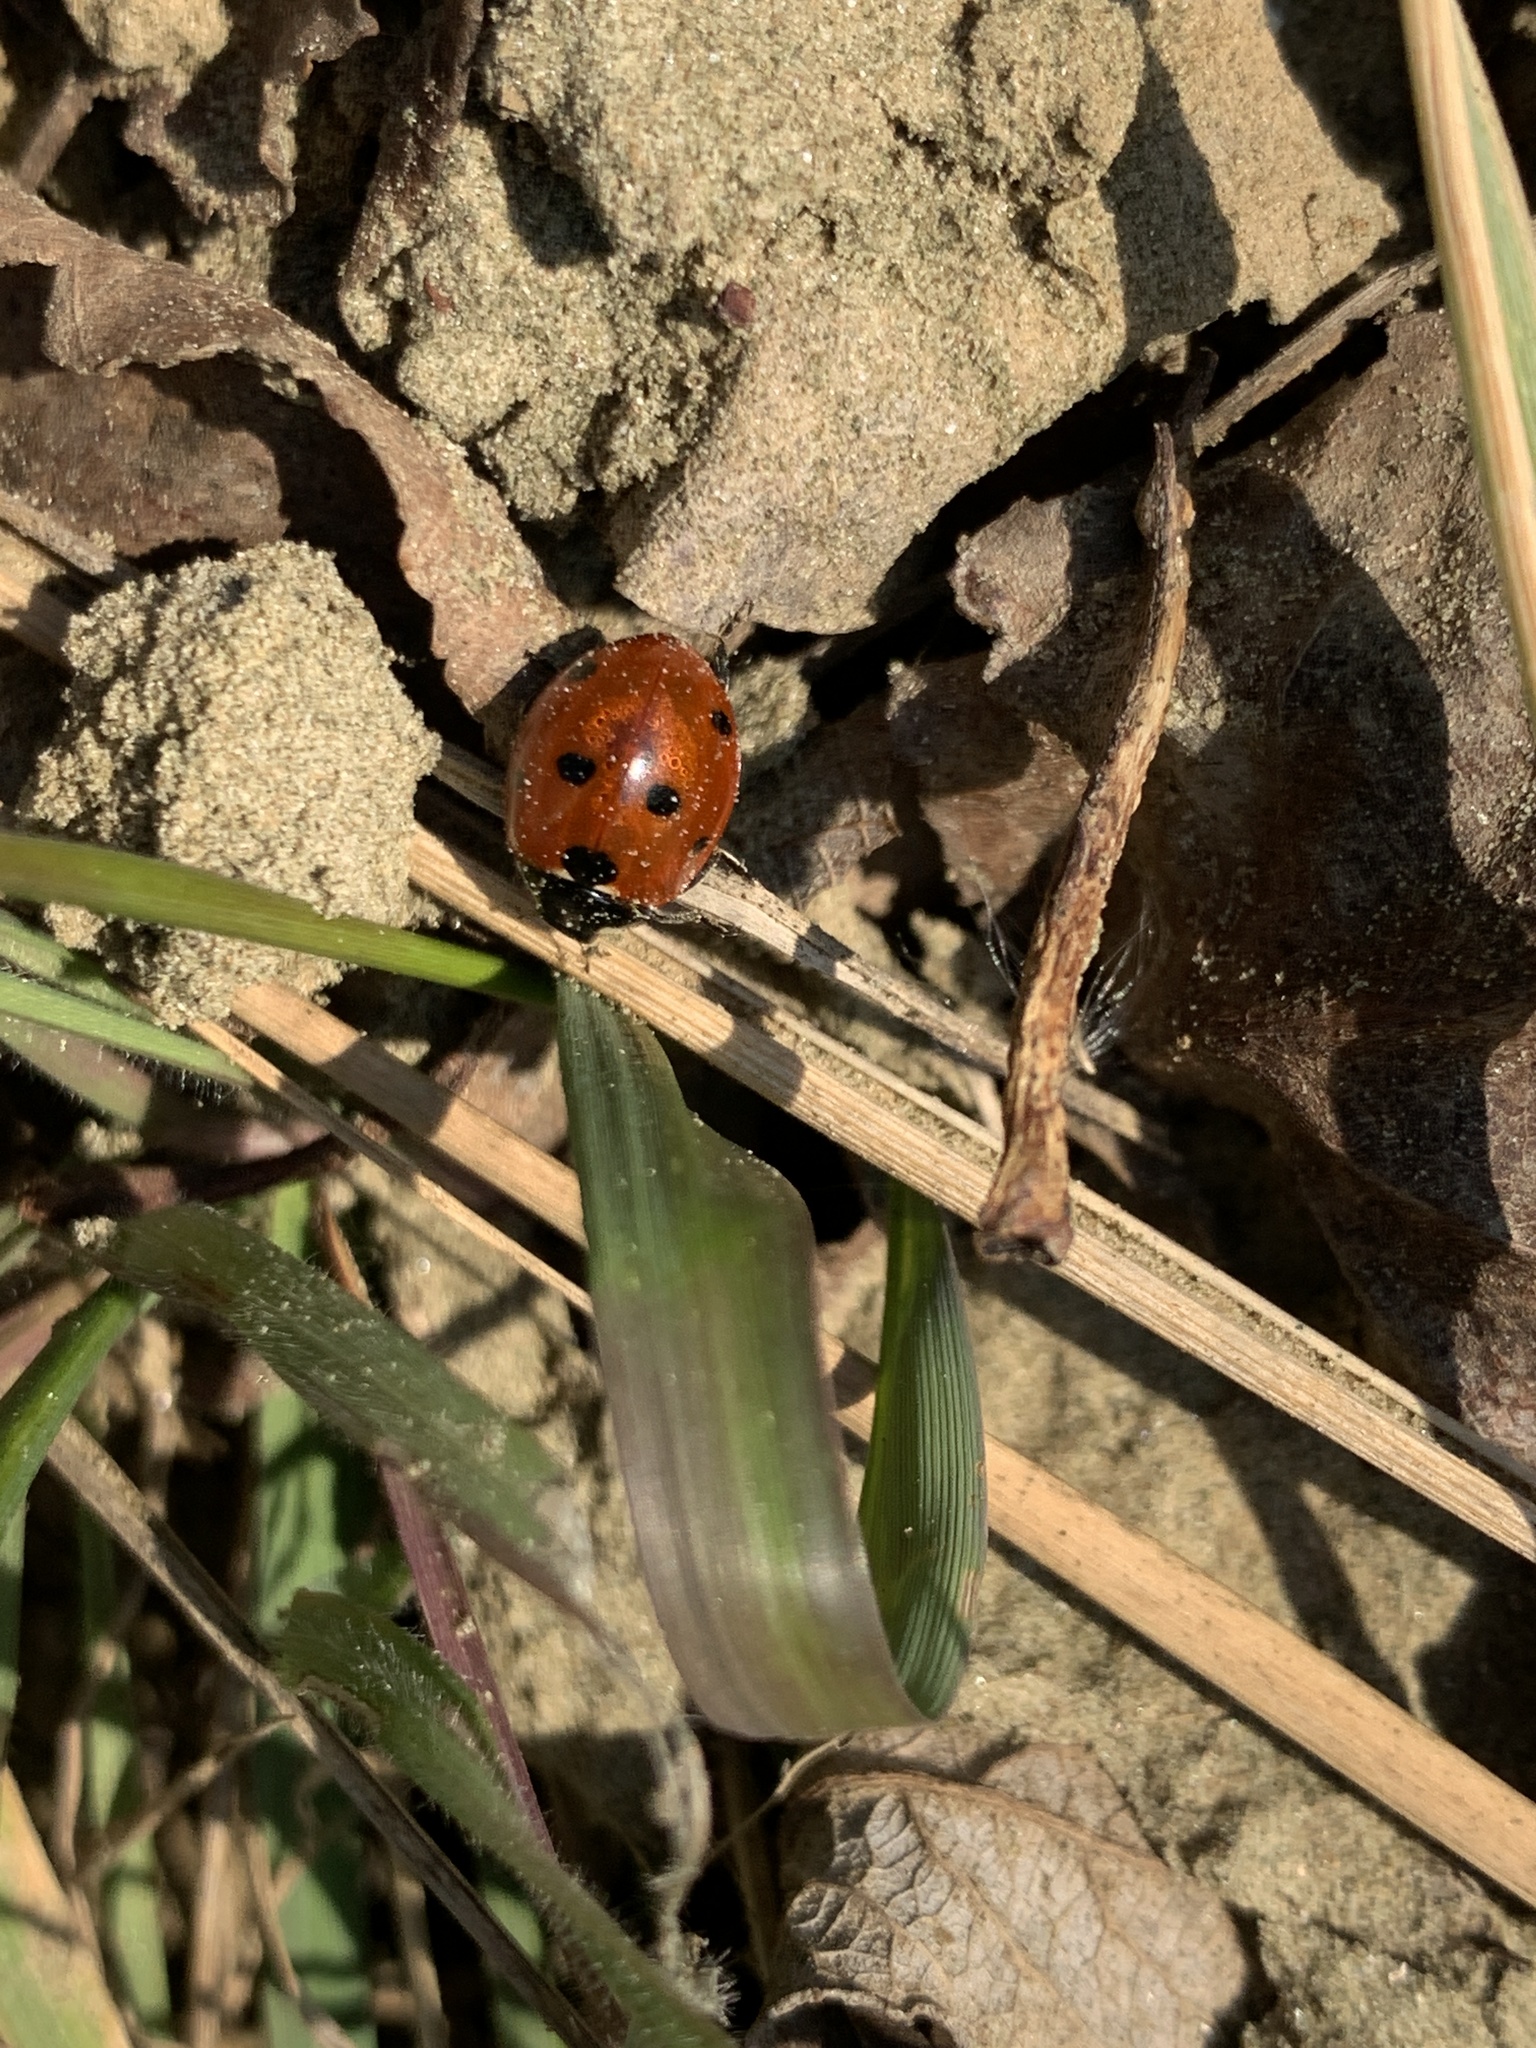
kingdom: Animalia
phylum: Arthropoda
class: Insecta
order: Coleoptera
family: Coccinellidae
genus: Coccinella
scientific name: Coccinella septempunctata
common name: Sevenspotted lady beetle
